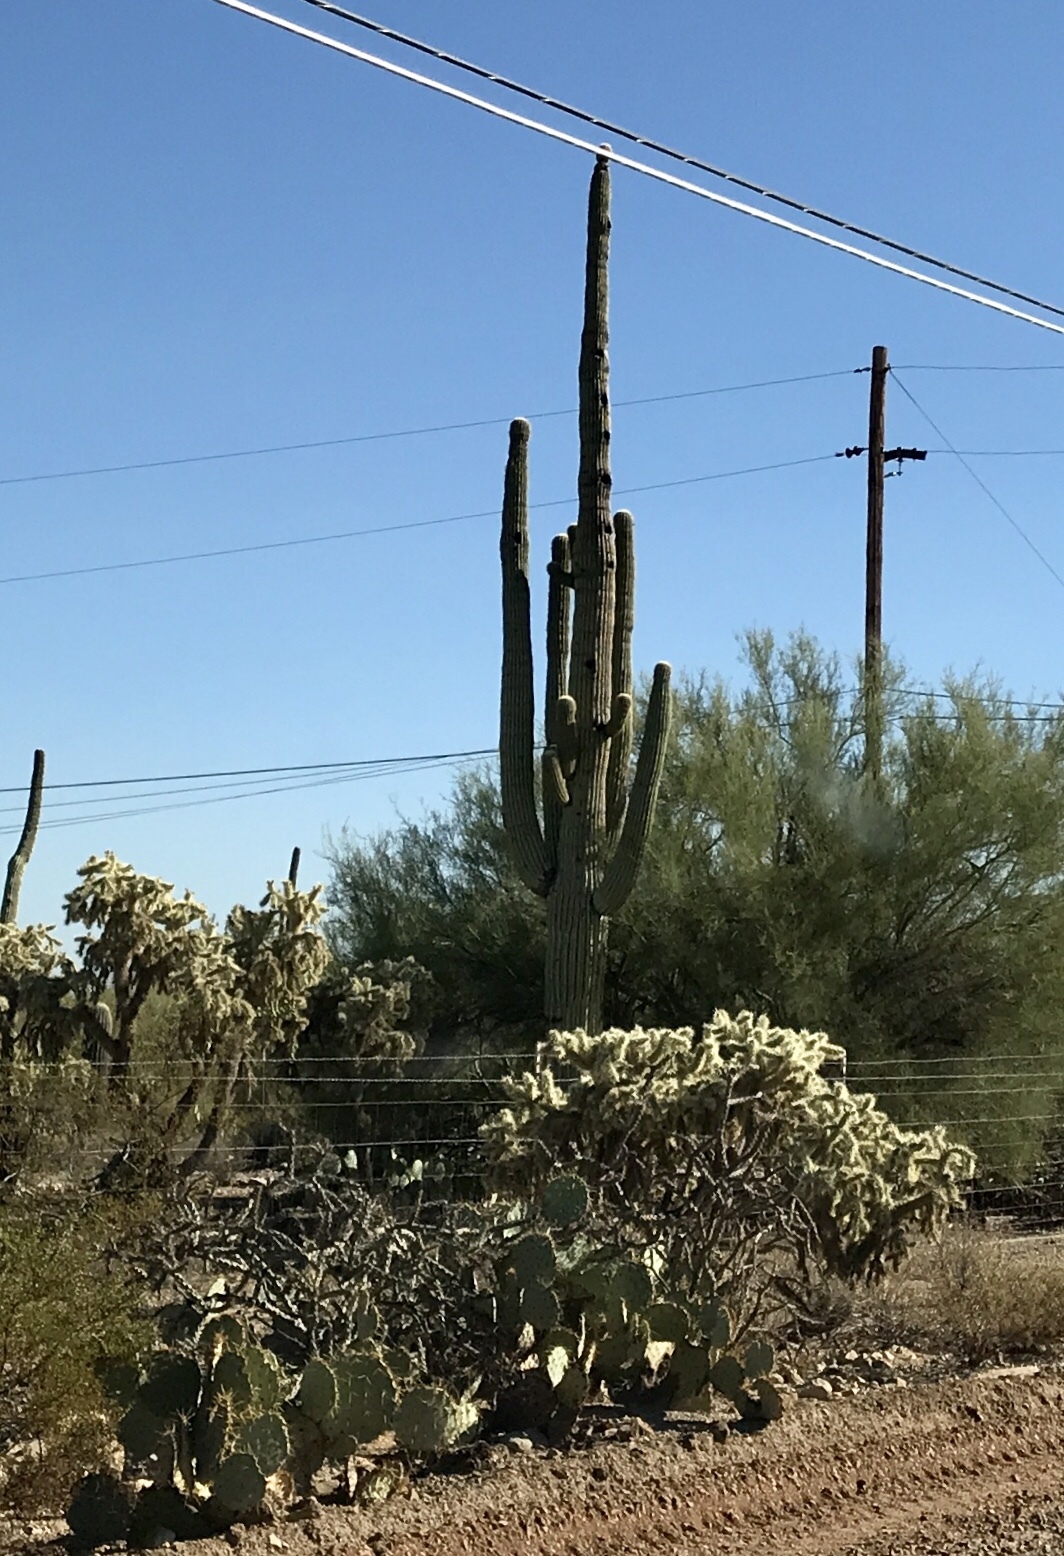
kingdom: Plantae
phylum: Tracheophyta
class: Magnoliopsida
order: Caryophyllales
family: Cactaceae
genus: Carnegiea
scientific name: Carnegiea gigantea
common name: Saguaro
